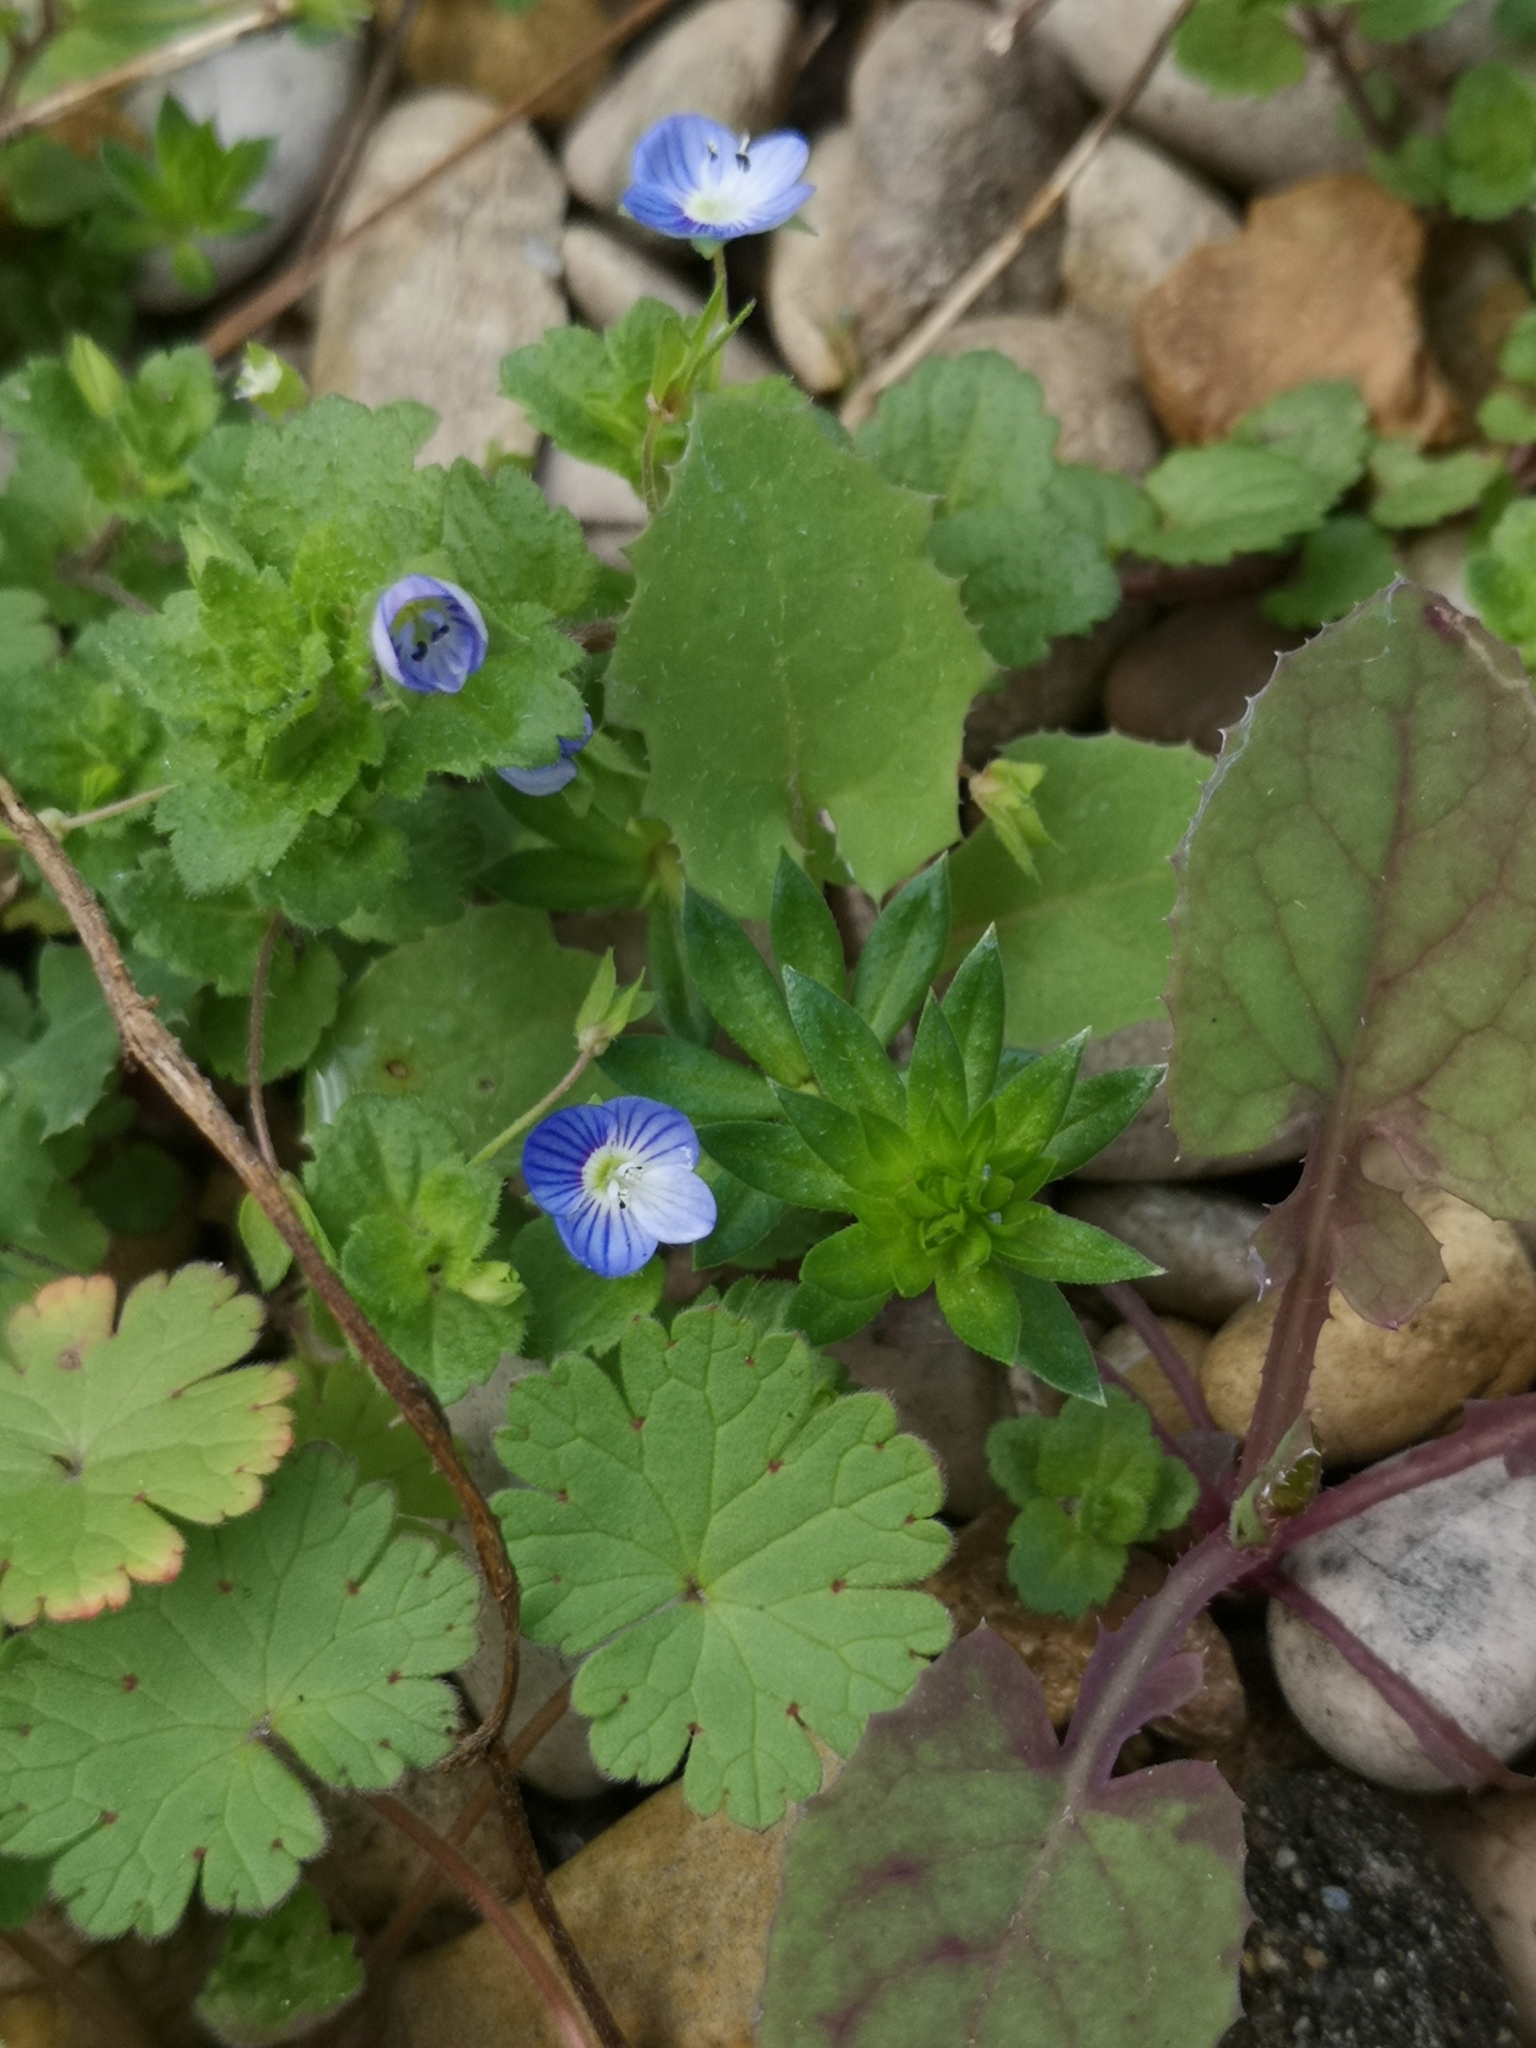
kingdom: Plantae
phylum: Tracheophyta
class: Magnoliopsida
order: Lamiales
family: Plantaginaceae
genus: Veronica
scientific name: Veronica persica
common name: Common field-speedwell
